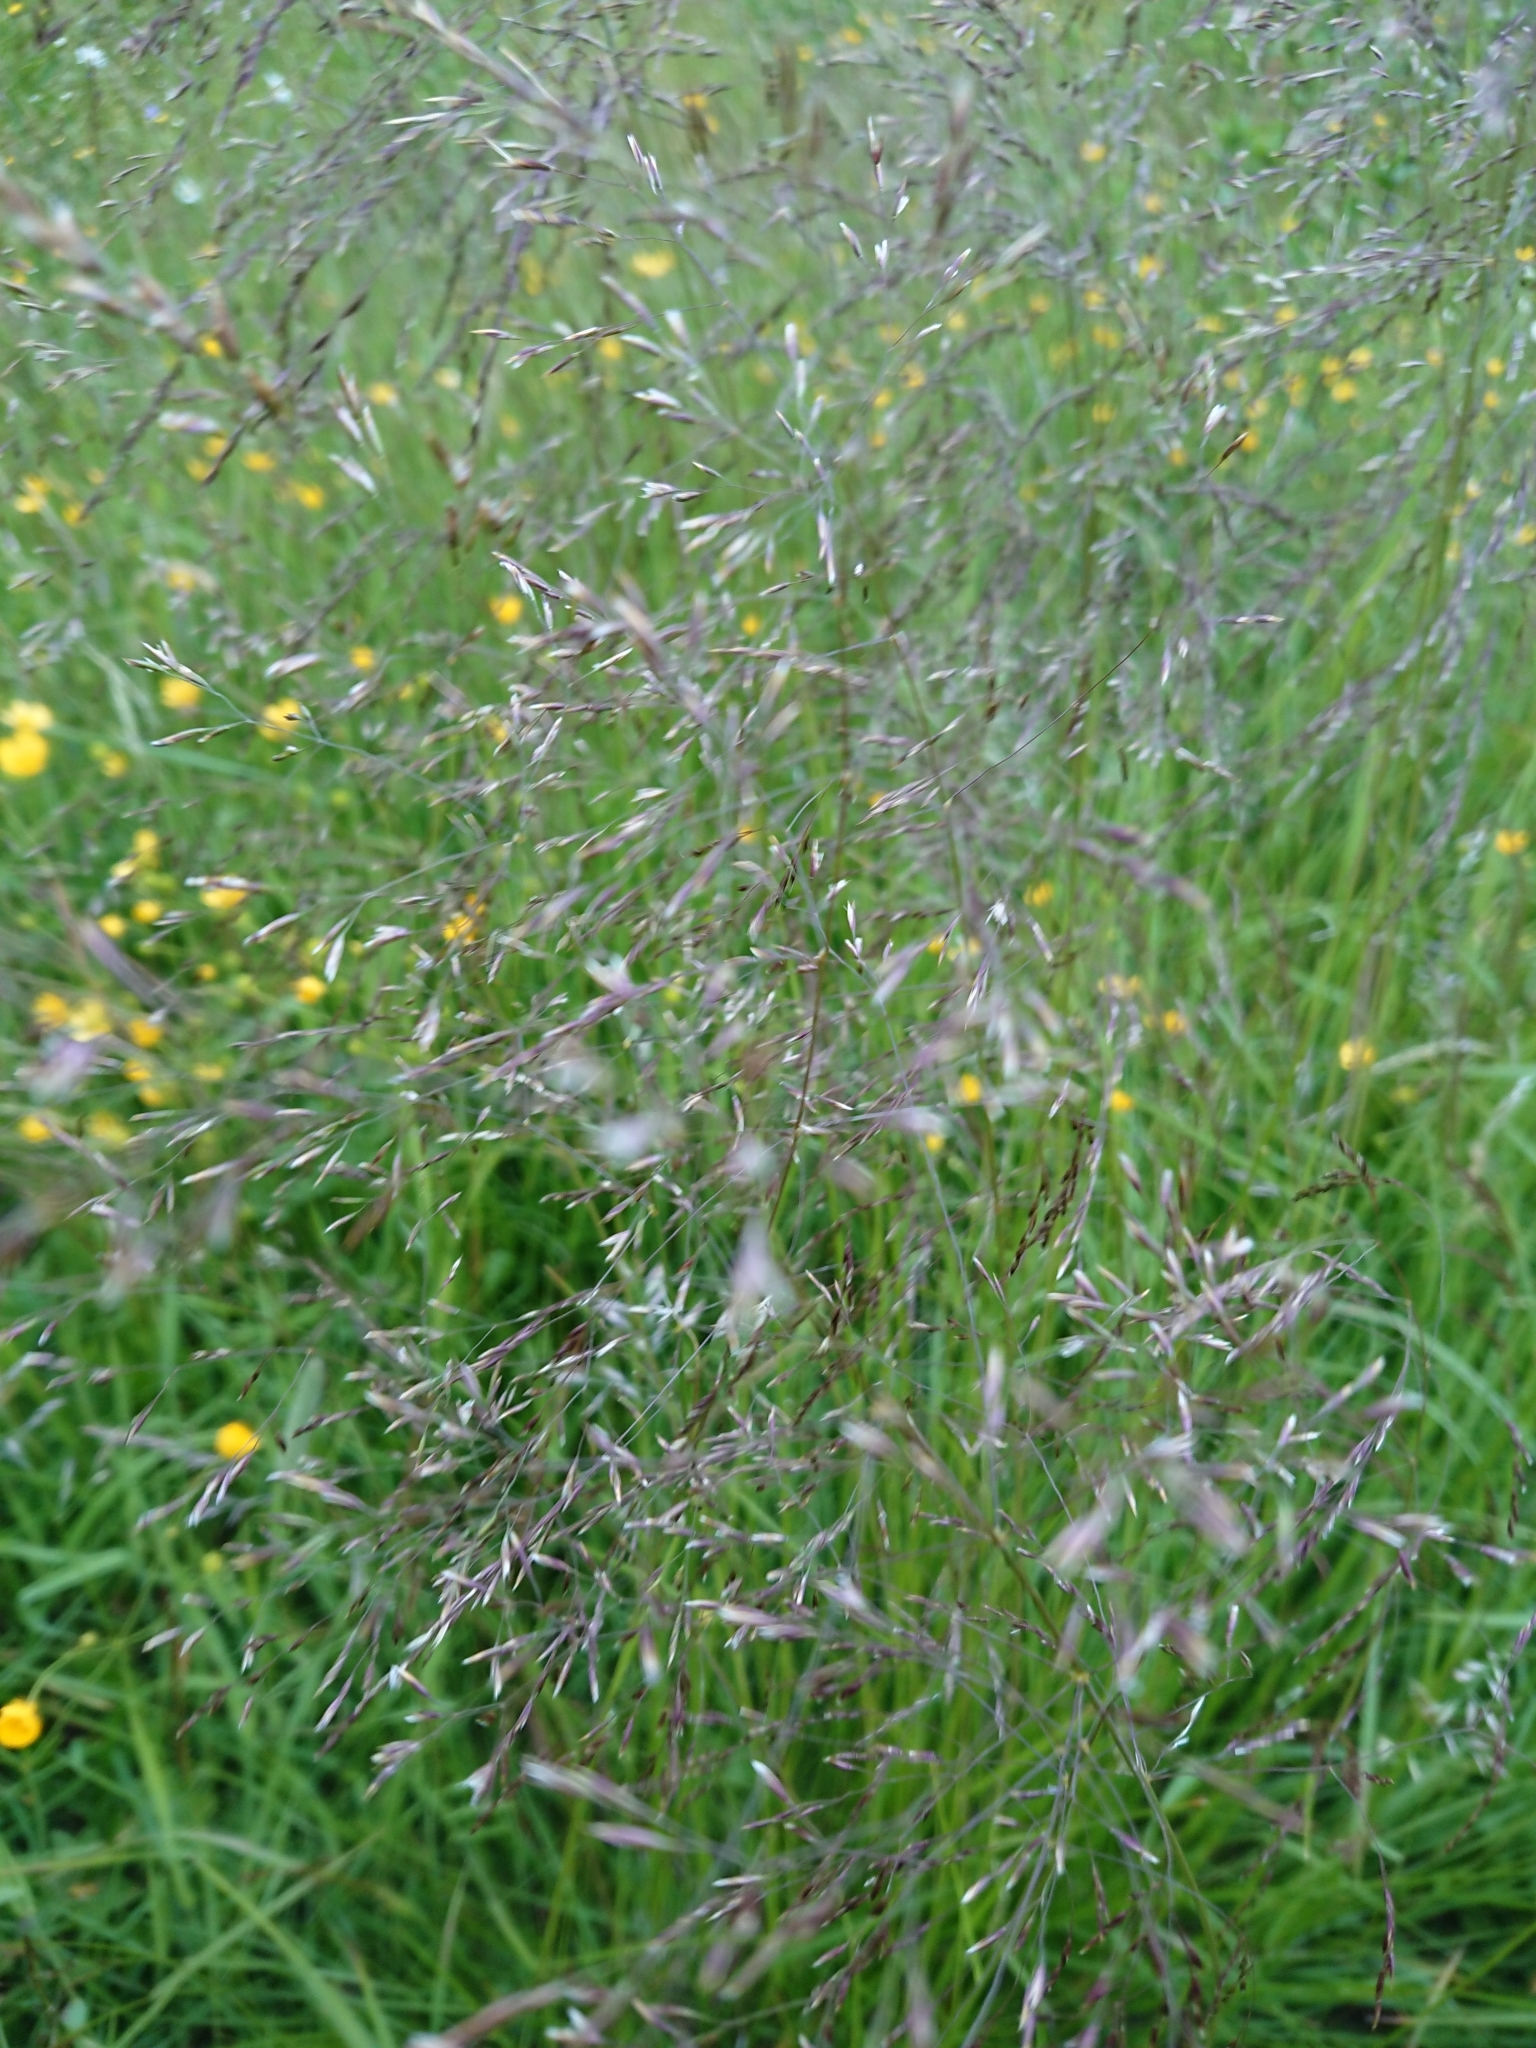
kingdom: Plantae
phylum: Tracheophyta
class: Liliopsida
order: Poales
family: Poaceae
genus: Deschampsia
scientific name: Deschampsia cespitosa
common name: Tufted hair-grass
